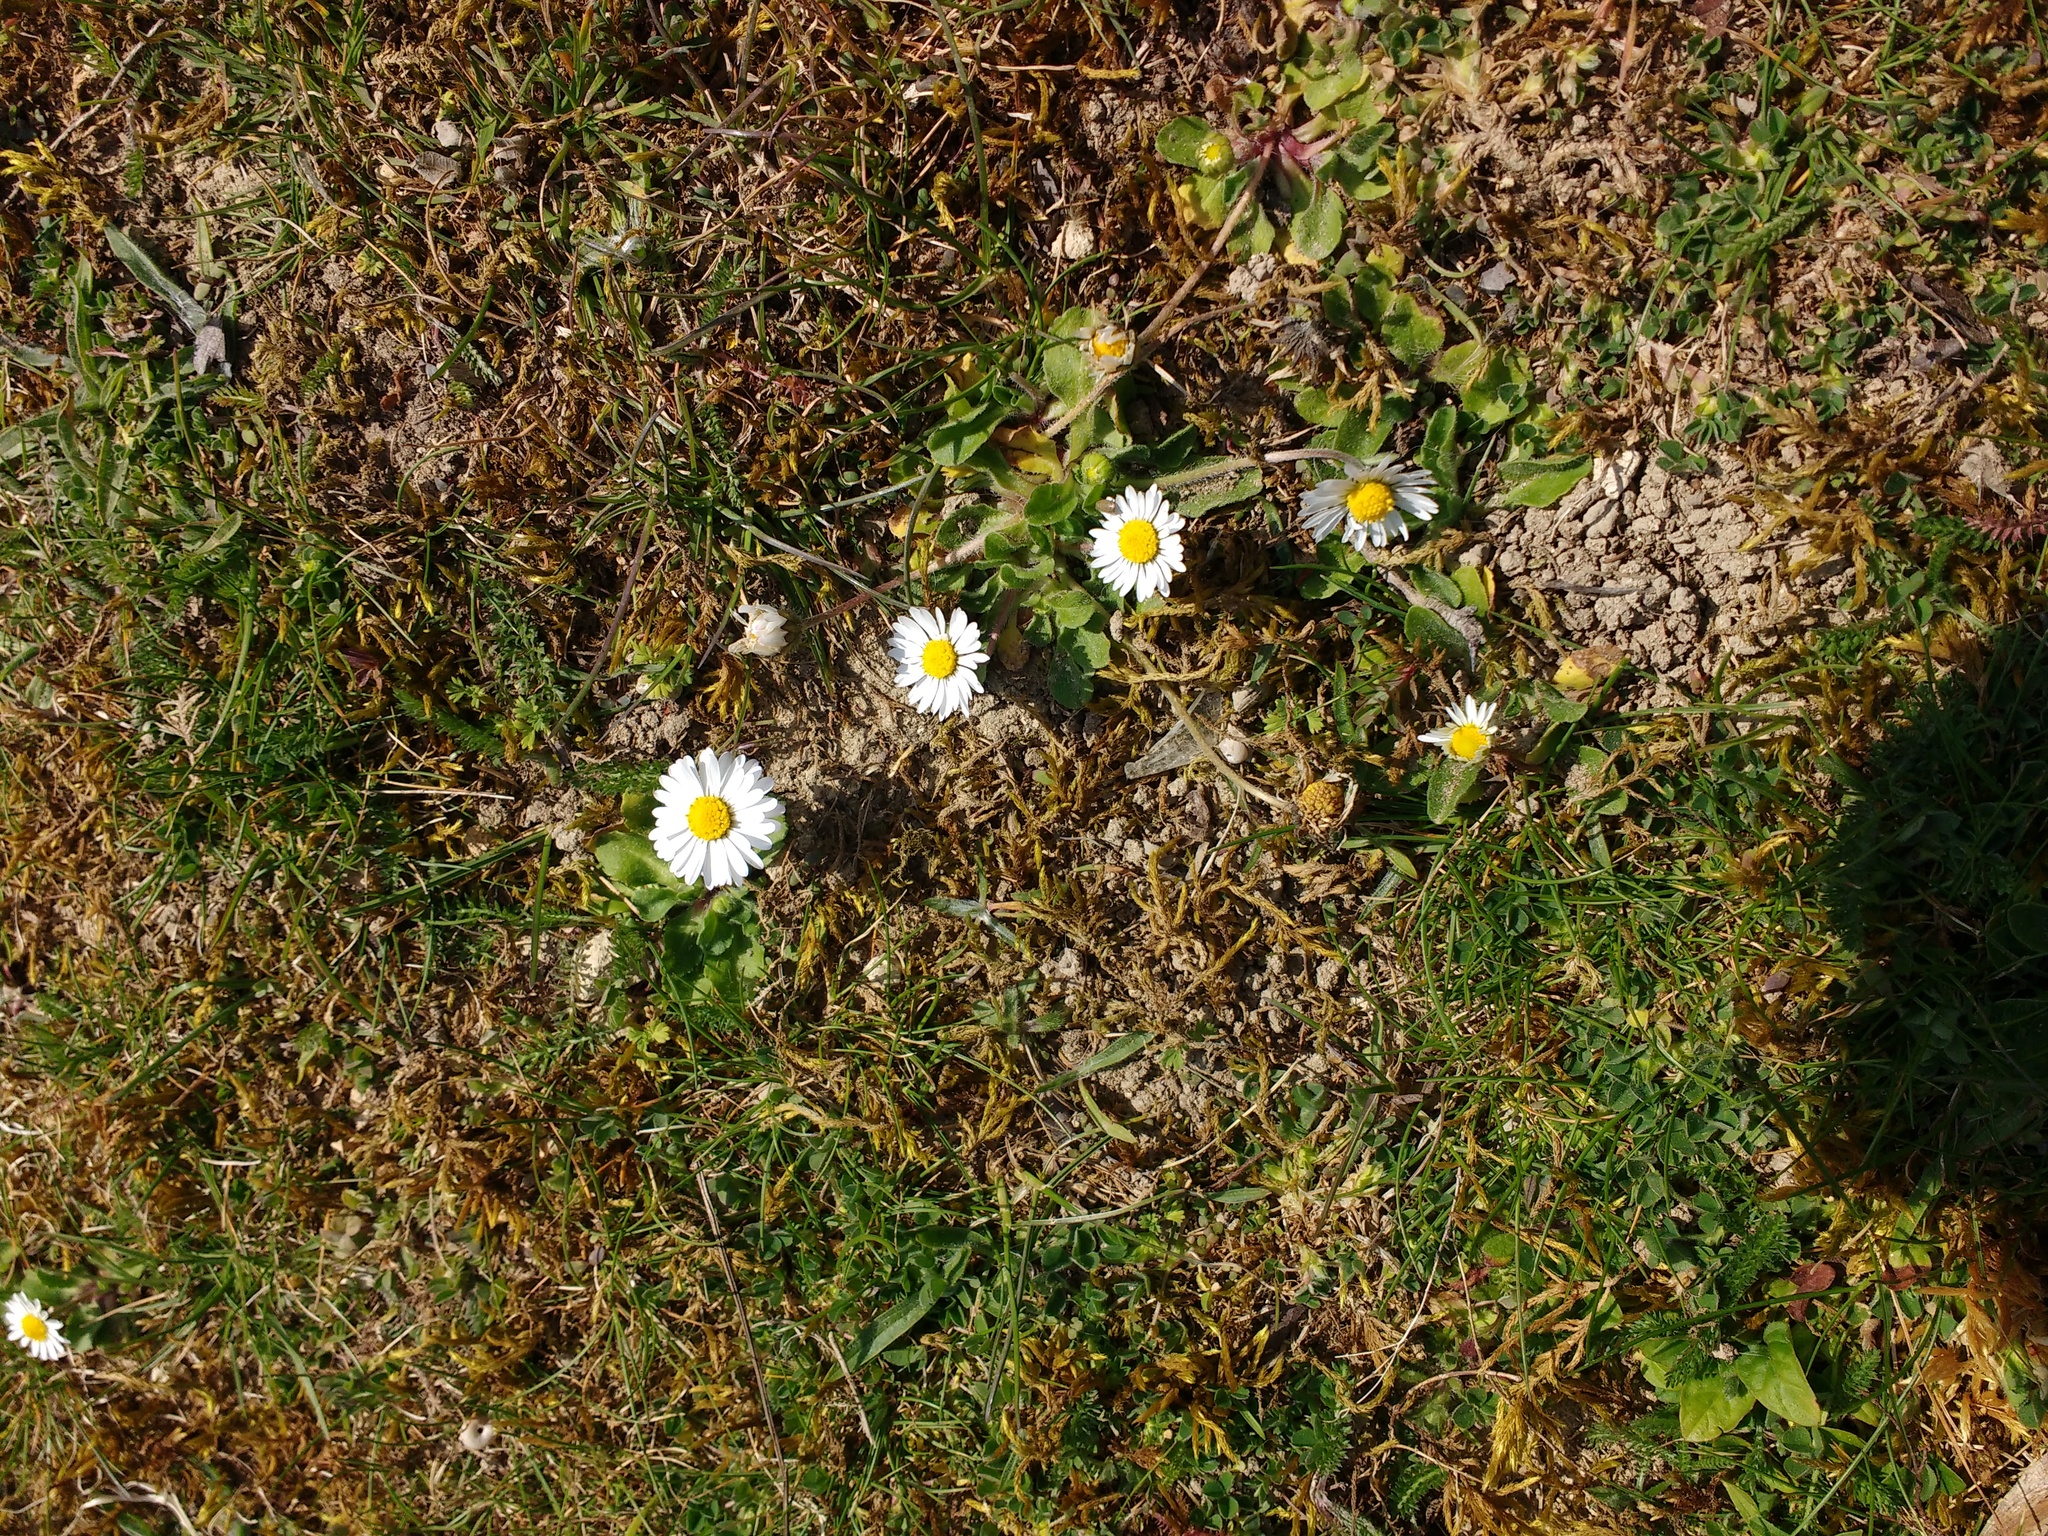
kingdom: Plantae
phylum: Tracheophyta
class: Magnoliopsida
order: Asterales
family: Asteraceae
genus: Bellis
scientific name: Bellis perennis
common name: Lawndaisy
